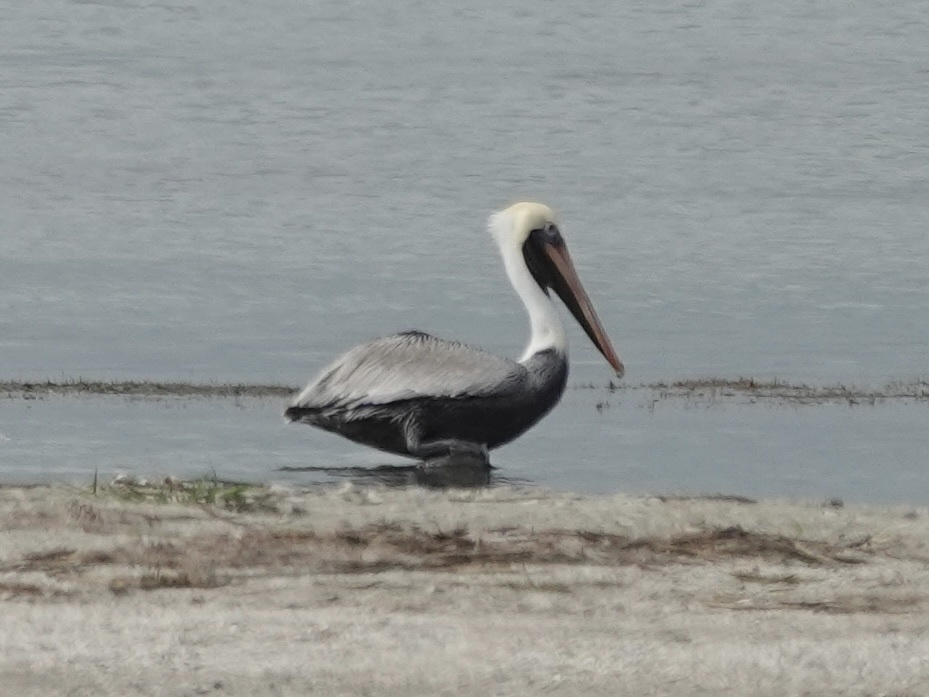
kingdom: Animalia
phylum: Chordata
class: Aves
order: Pelecaniformes
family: Pelecanidae
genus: Pelecanus
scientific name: Pelecanus occidentalis
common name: Brown pelican
